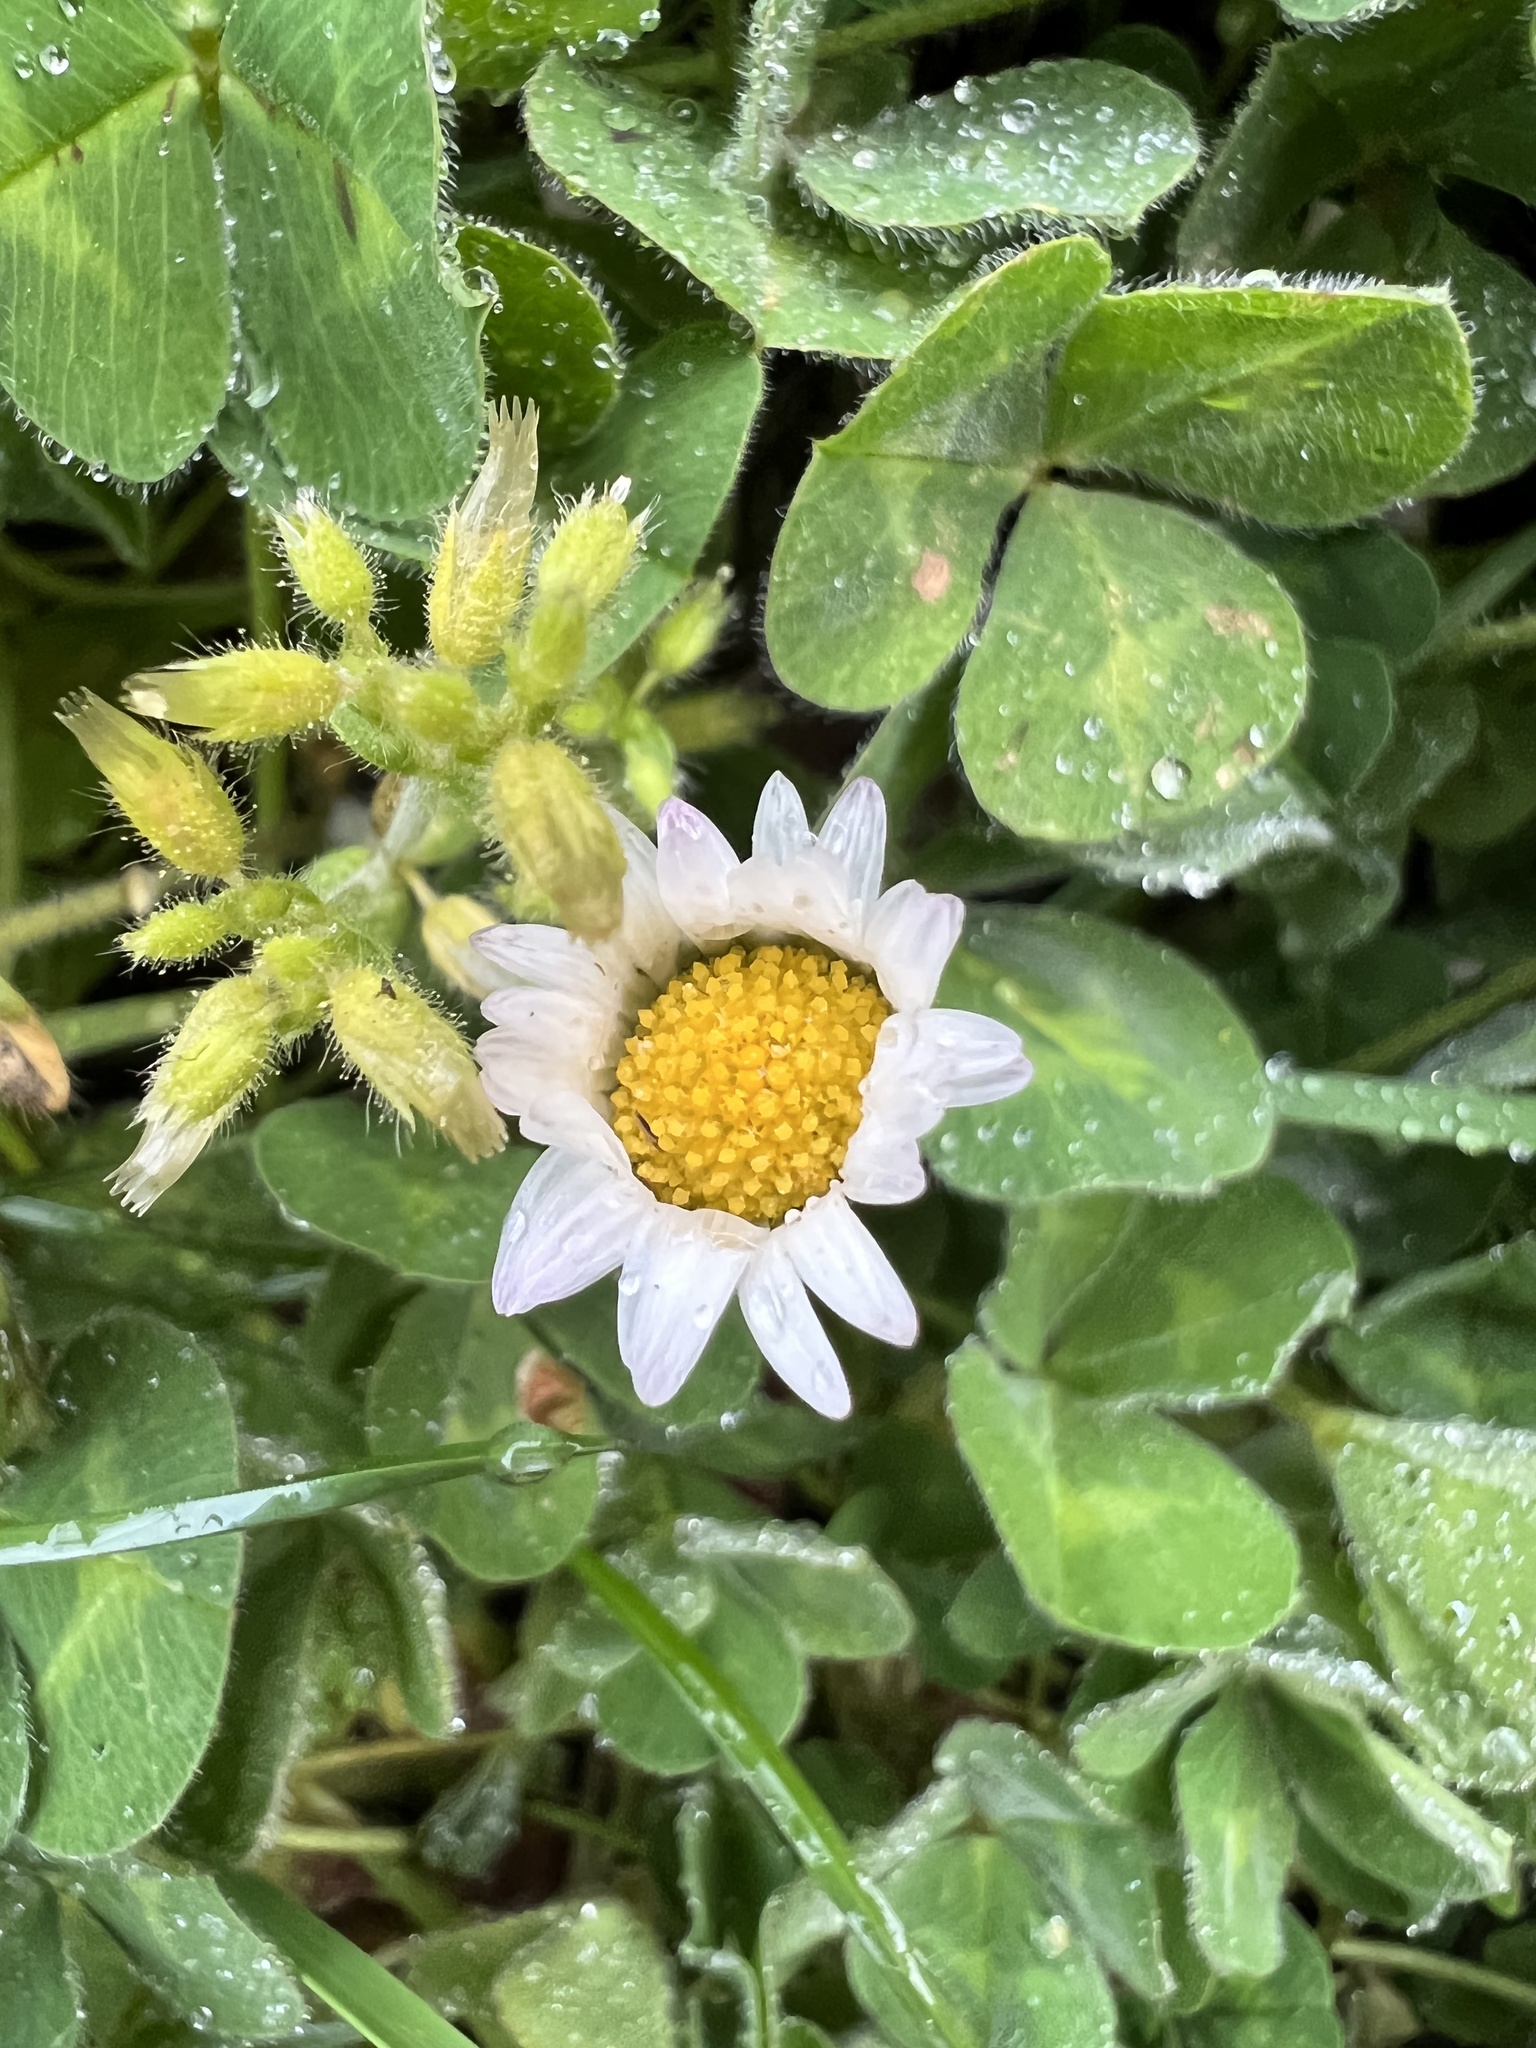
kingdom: Plantae
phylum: Tracheophyta
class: Magnoliopsida
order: Asterales
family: Asteraceae
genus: Bellis
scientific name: Bellis perennis
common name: Lawndaisy
